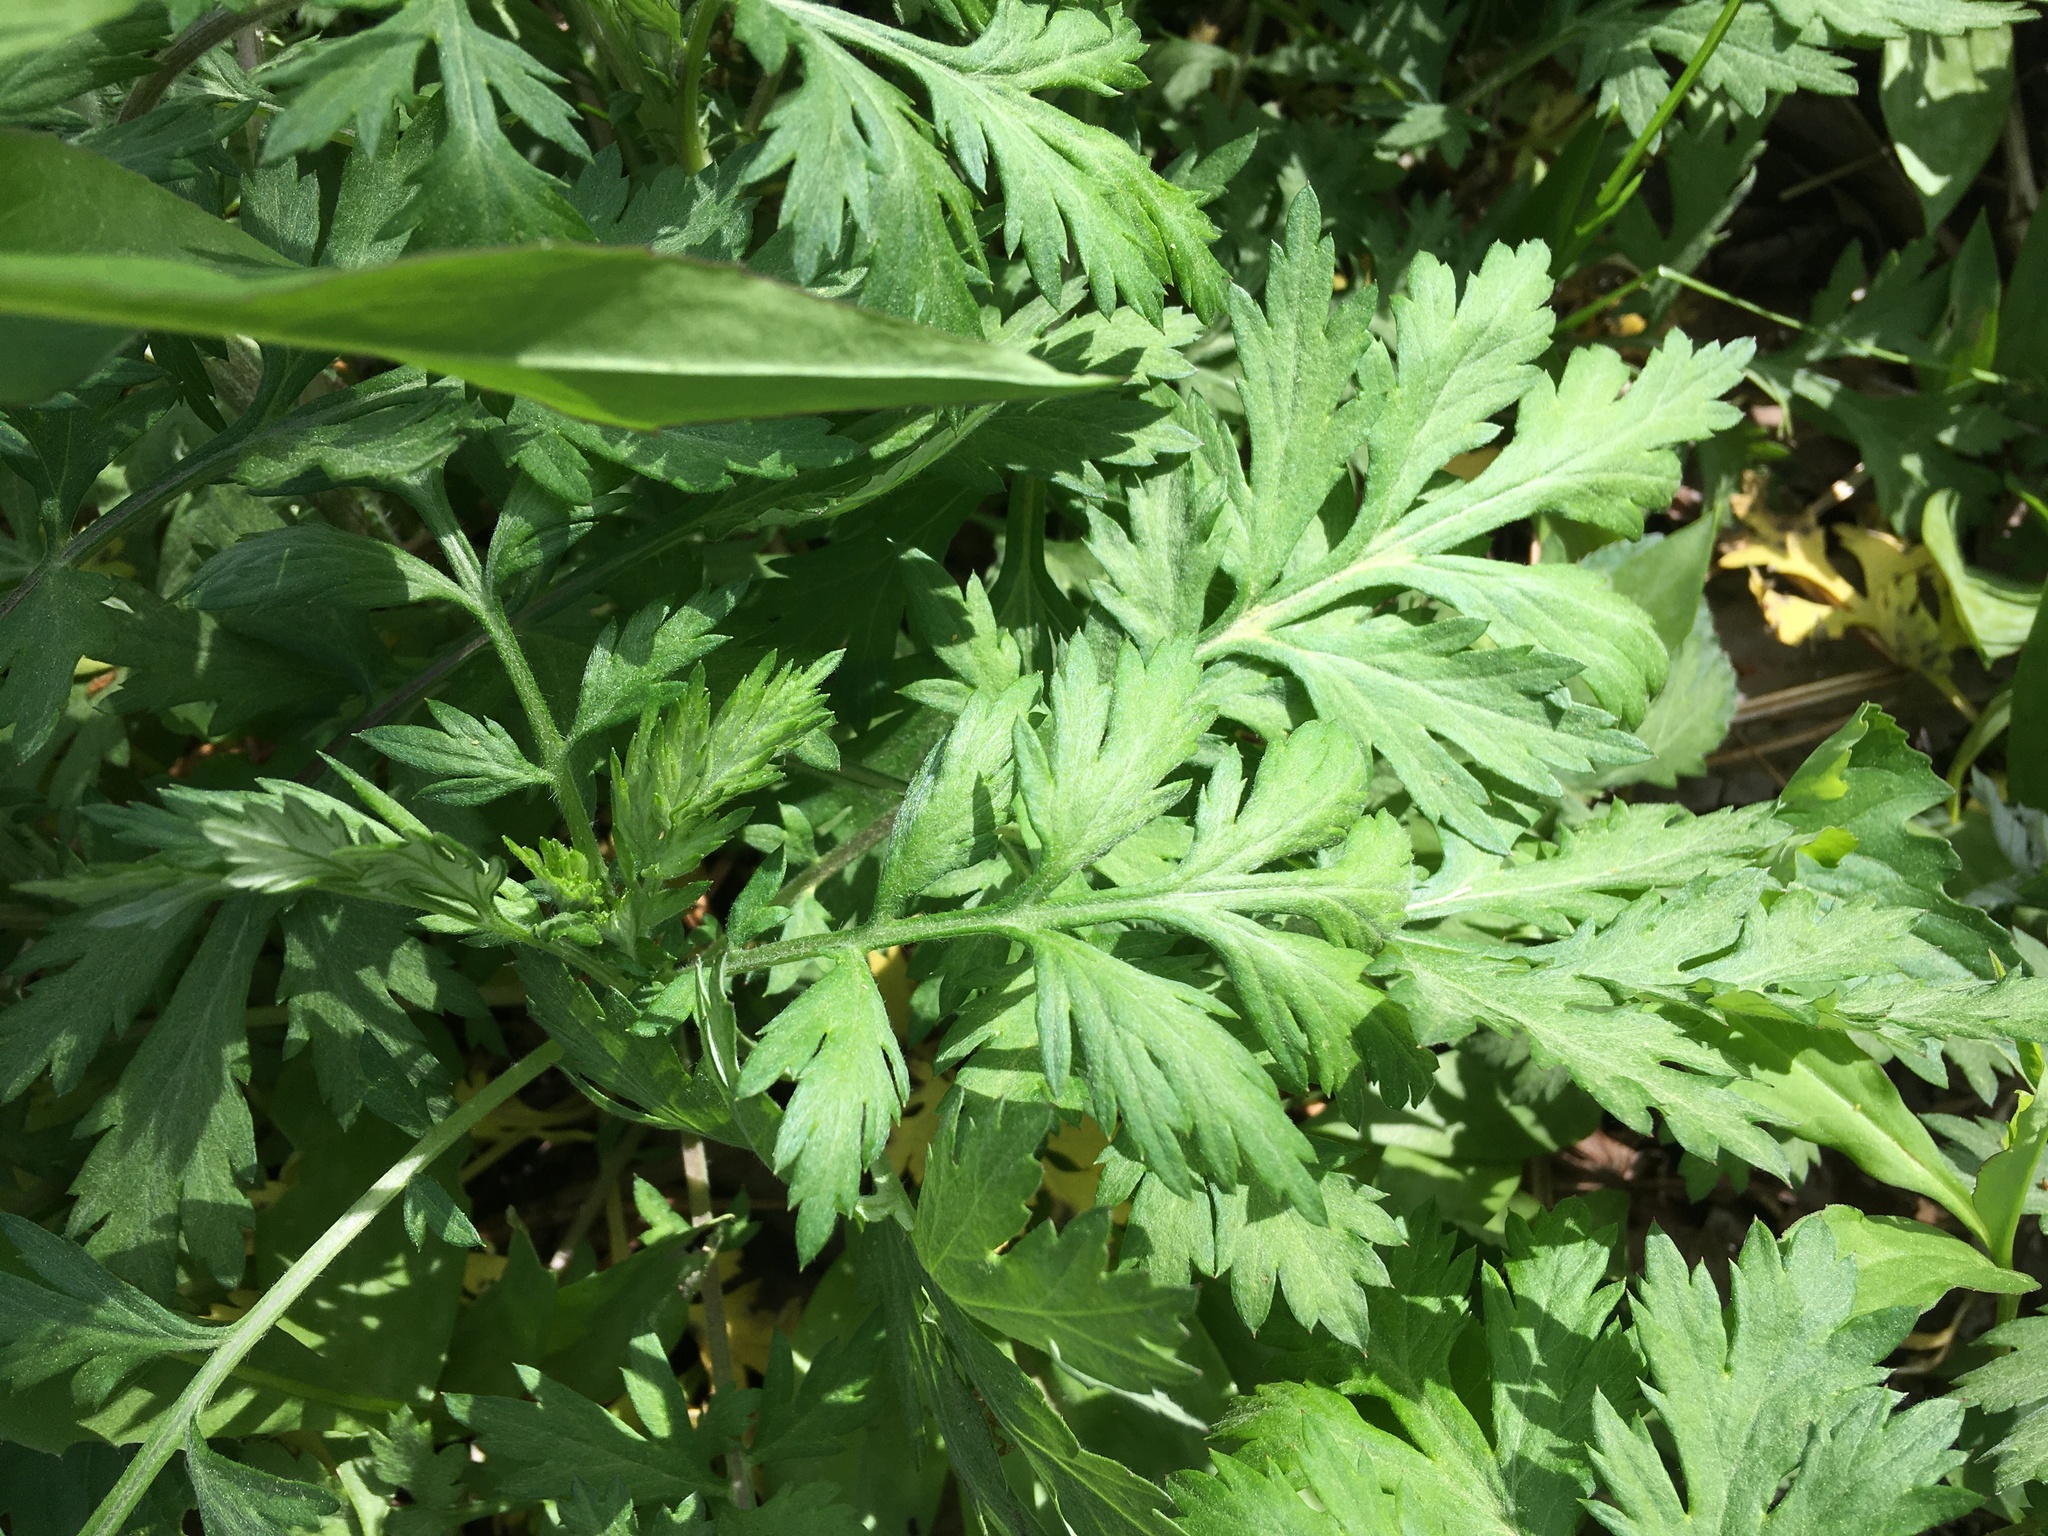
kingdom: Plantae
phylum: Tracheophyta
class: Magnoliopsida
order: Asterales
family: Asteraceae
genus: Artemisia
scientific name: Artemisia vulgaris
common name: Mugwort
